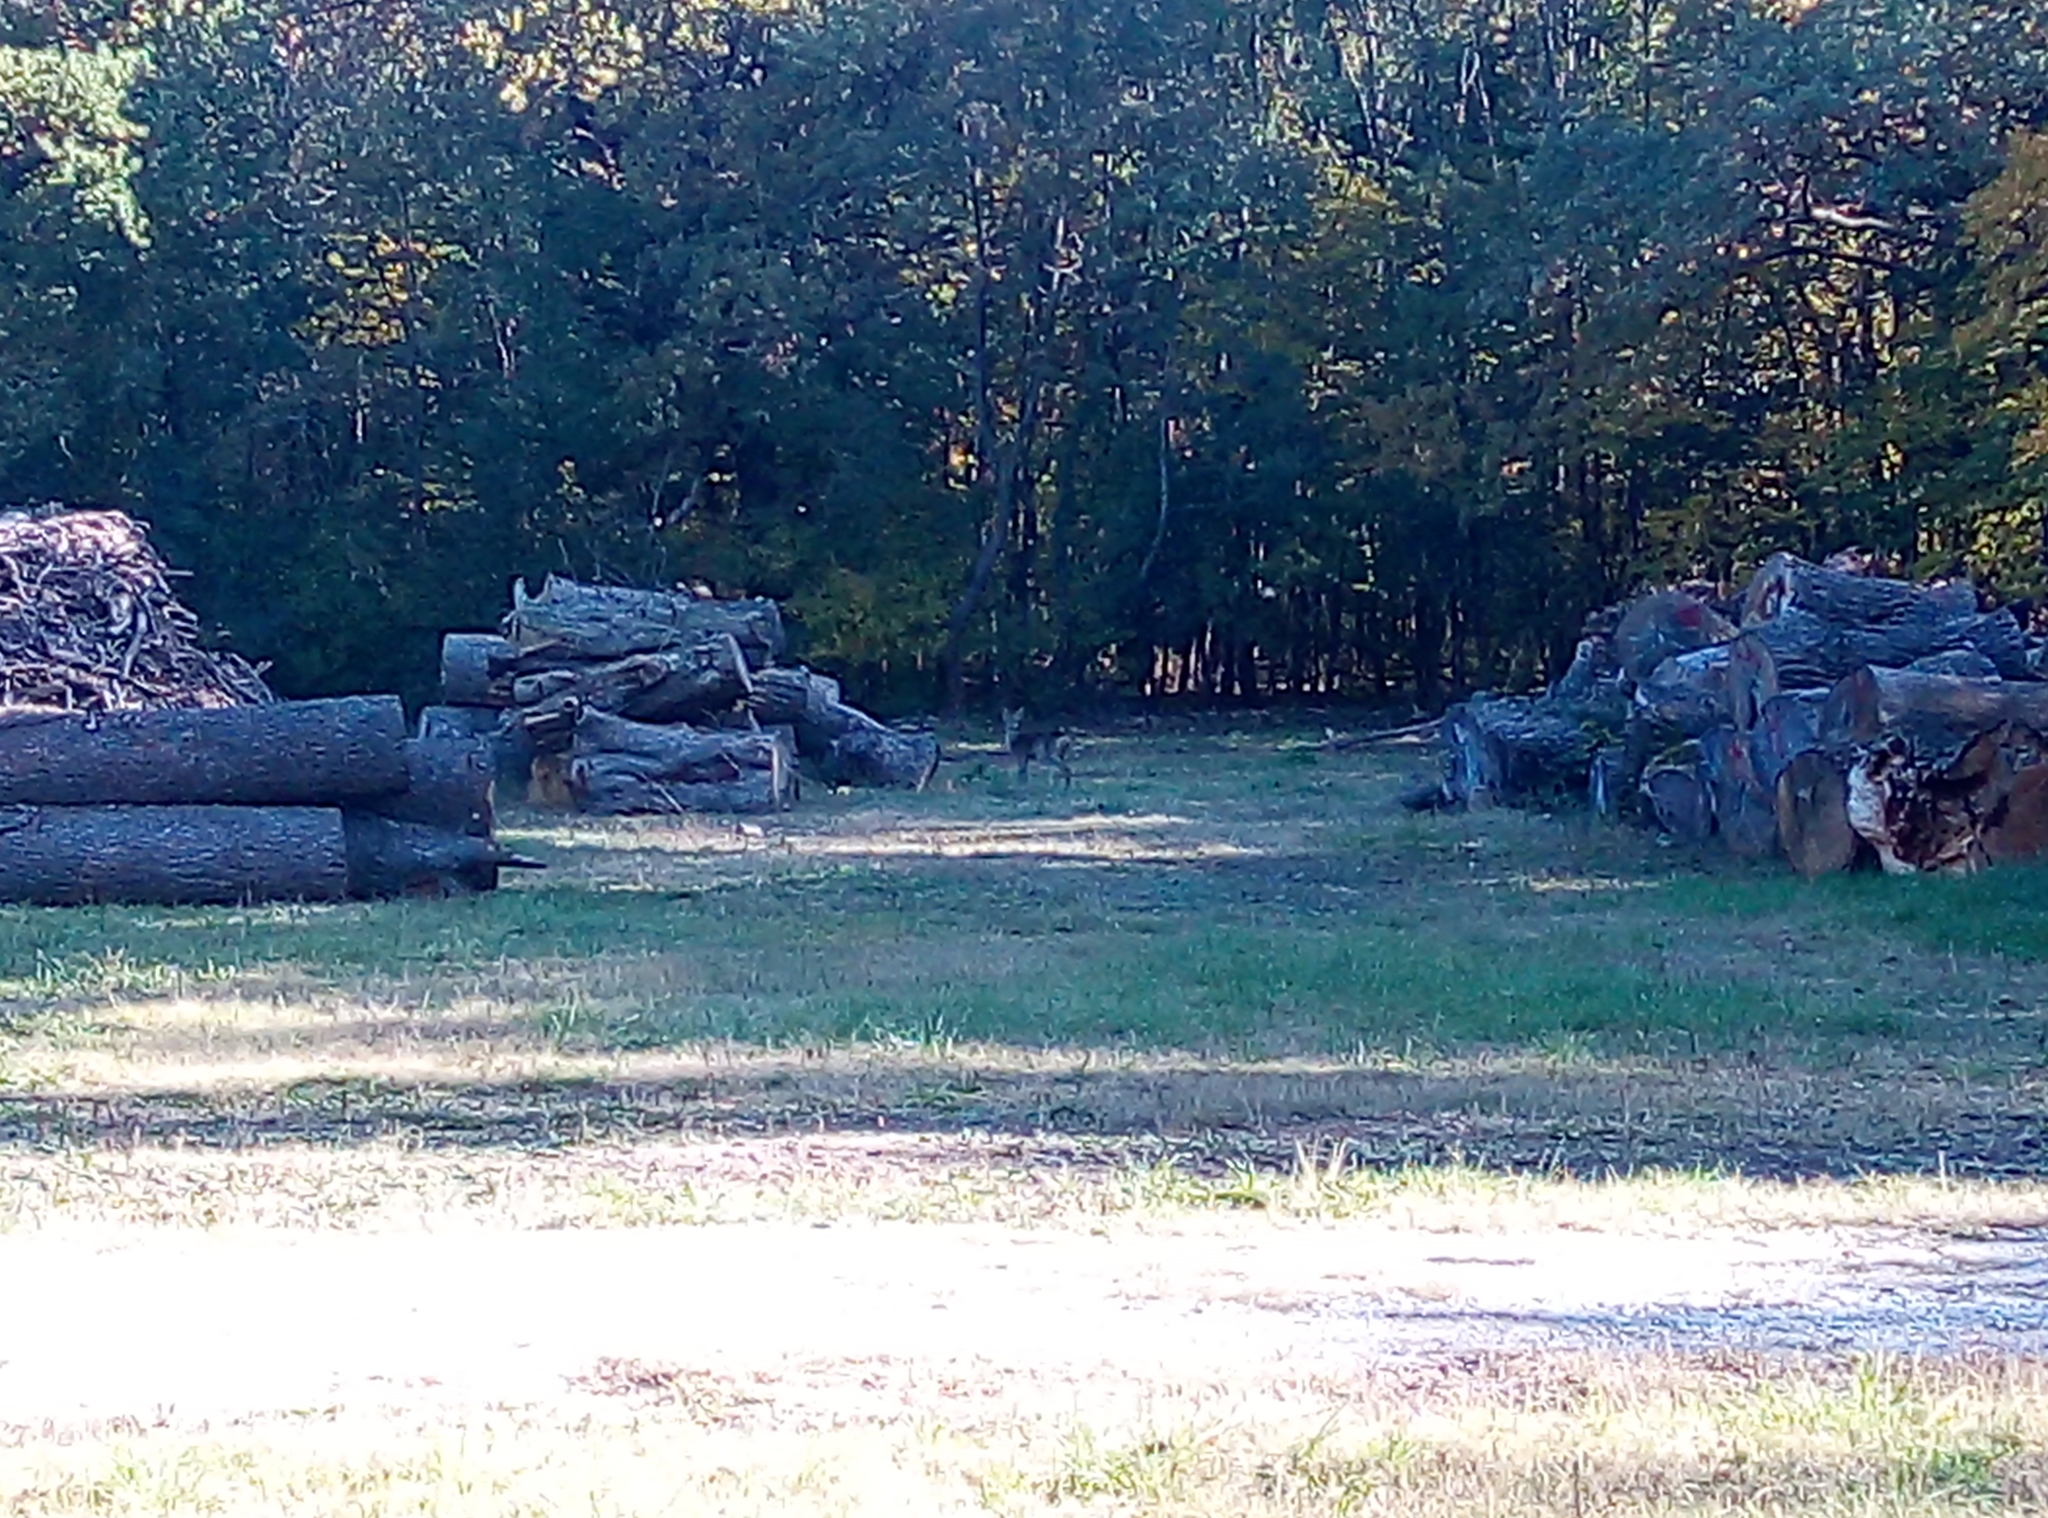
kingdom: Animalia
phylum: Chordata
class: Mammalia
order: Artiodactyla
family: Cervidae
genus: Capreolus
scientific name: Capreolus capreolus
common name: Western roe deer
